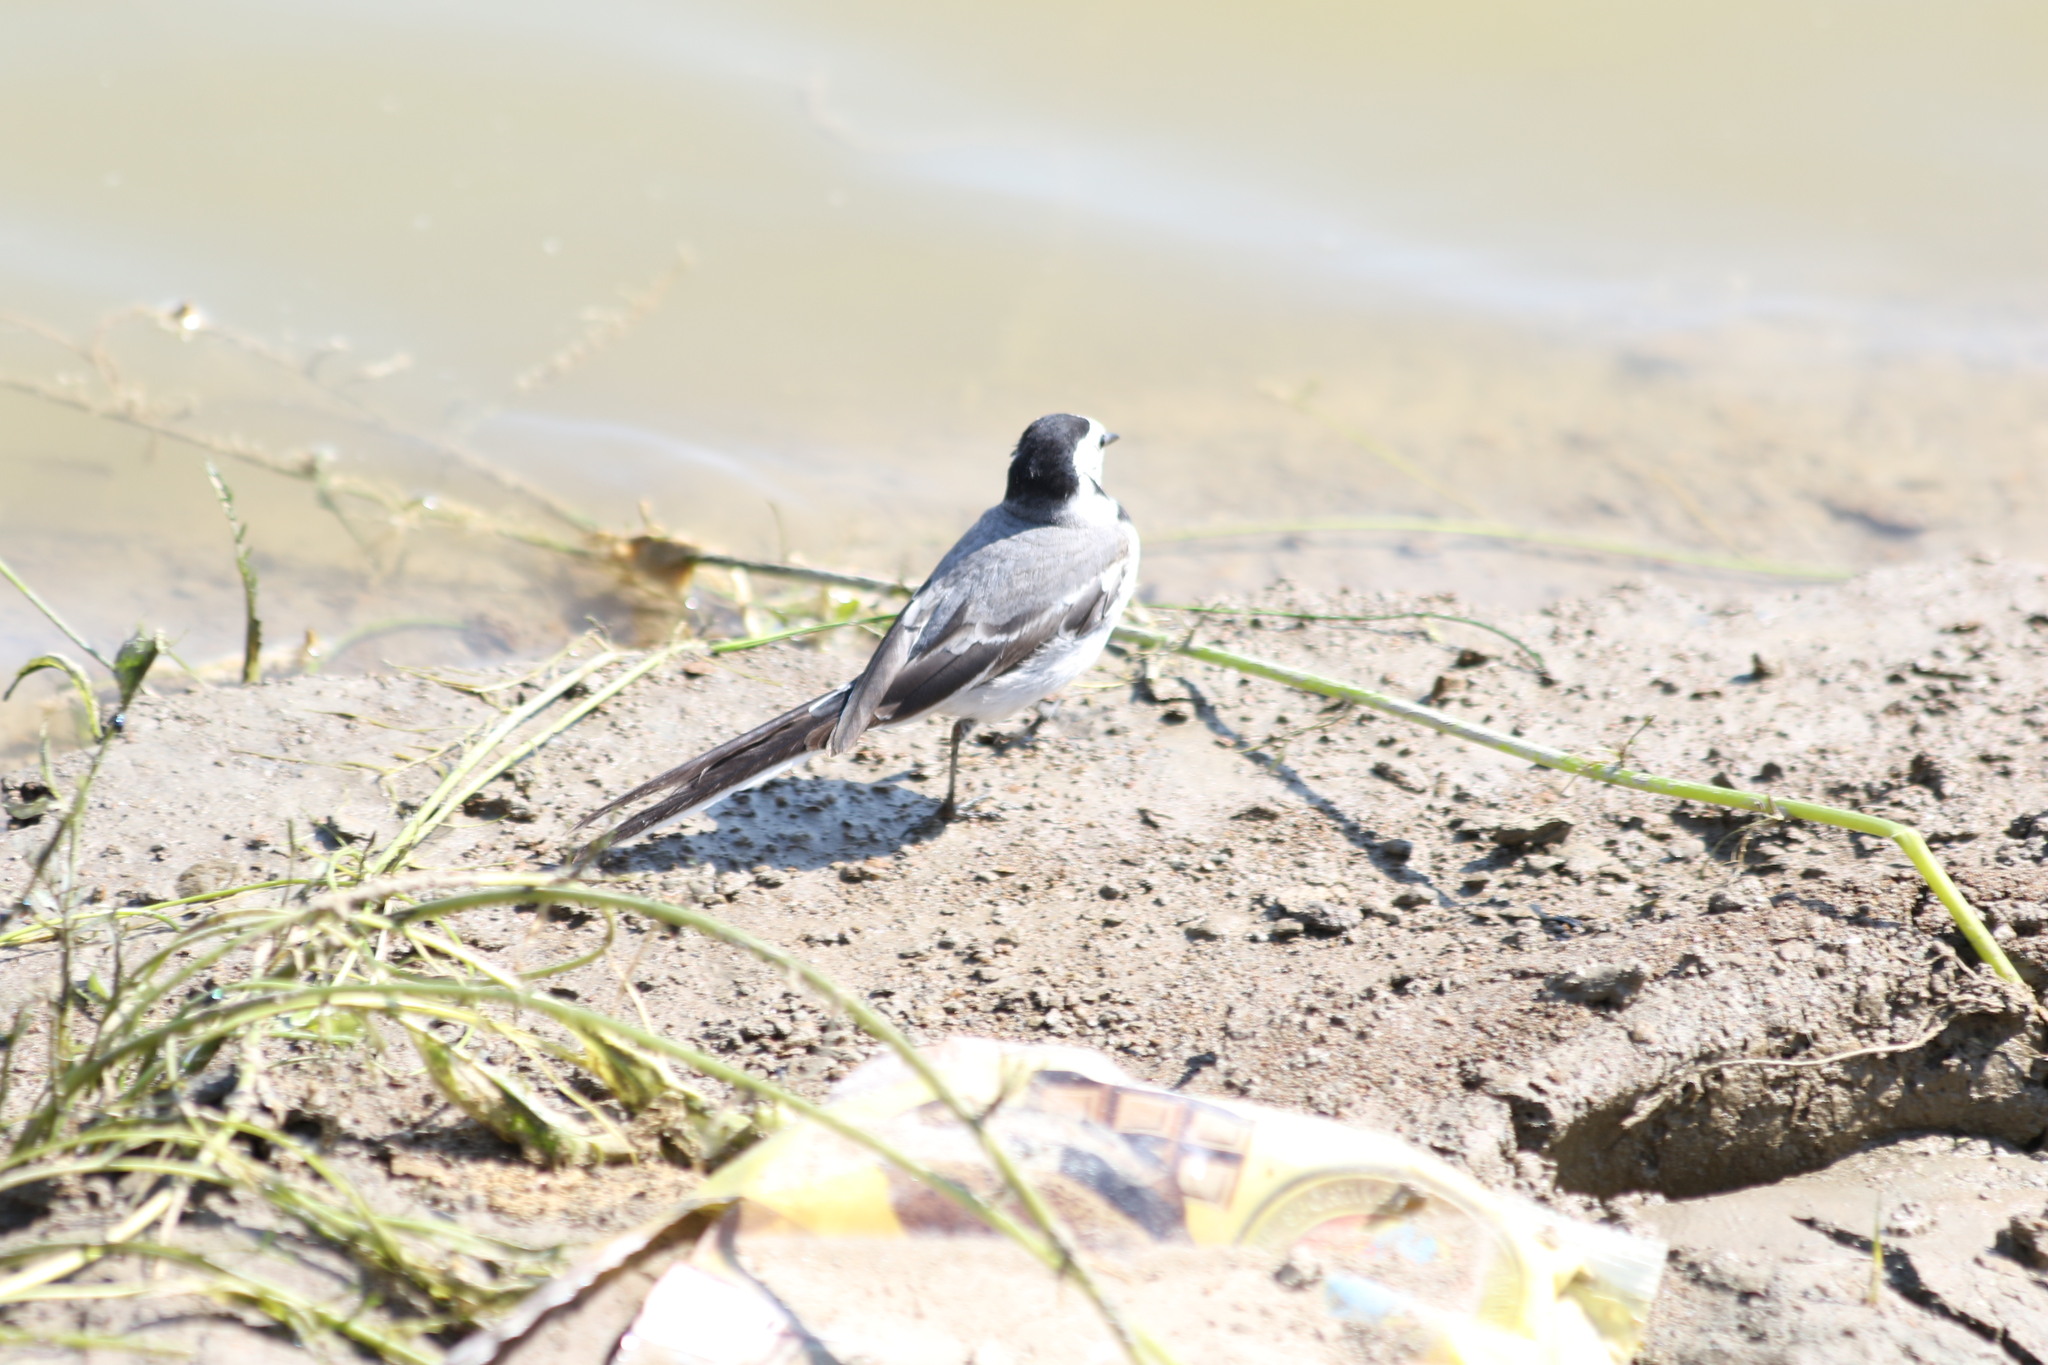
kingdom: Animalia
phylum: Chordata
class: Aves
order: Passeriformes
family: Motacillidae
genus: Motacilla
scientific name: Motacilla alba
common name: White wagtail
